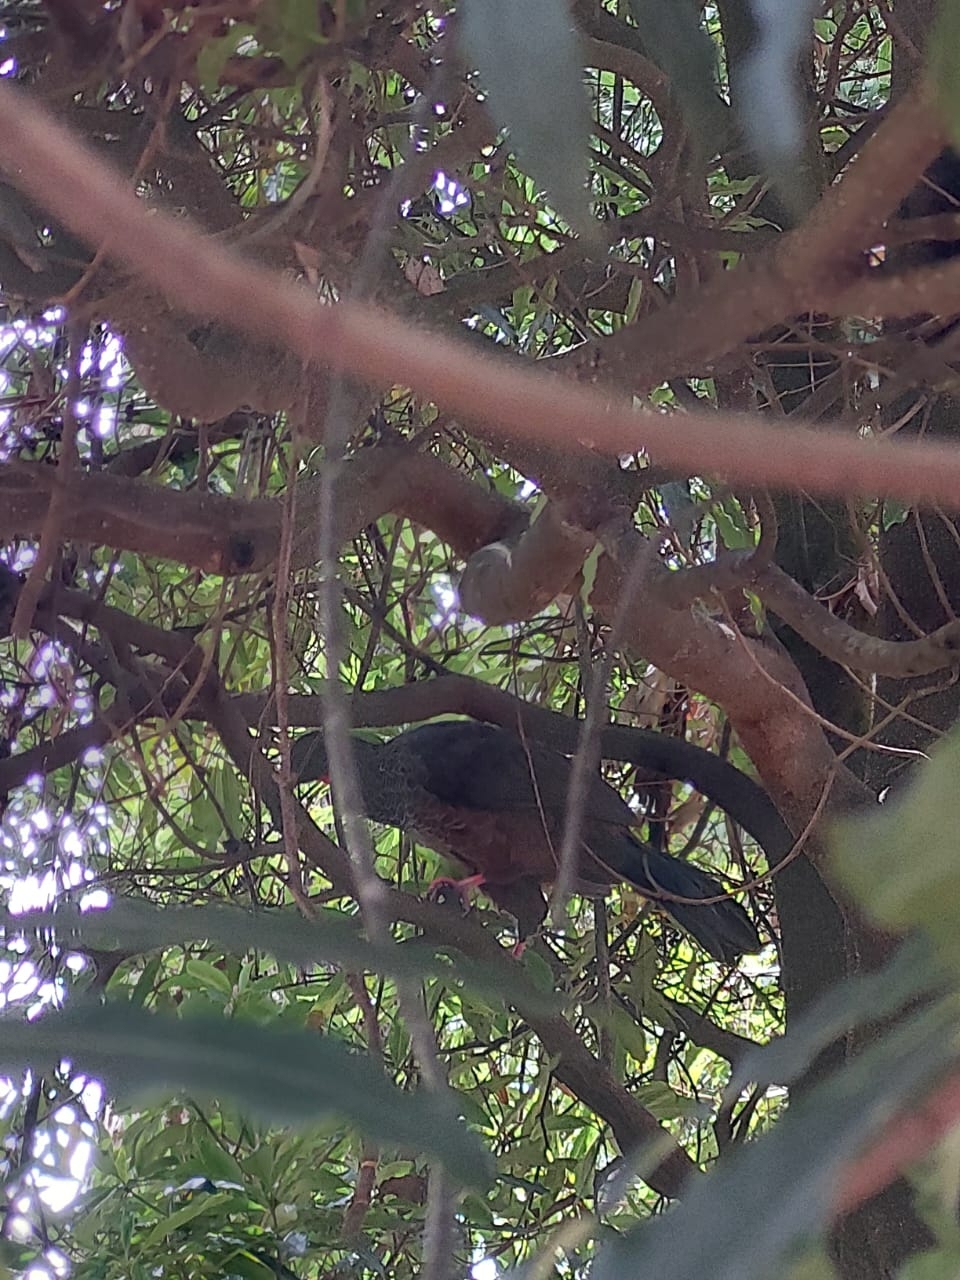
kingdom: Animalia
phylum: Chordata
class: Aves
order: Galliformes
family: Cracidae
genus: Penelope
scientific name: Penelope montagnii
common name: Andean guan
